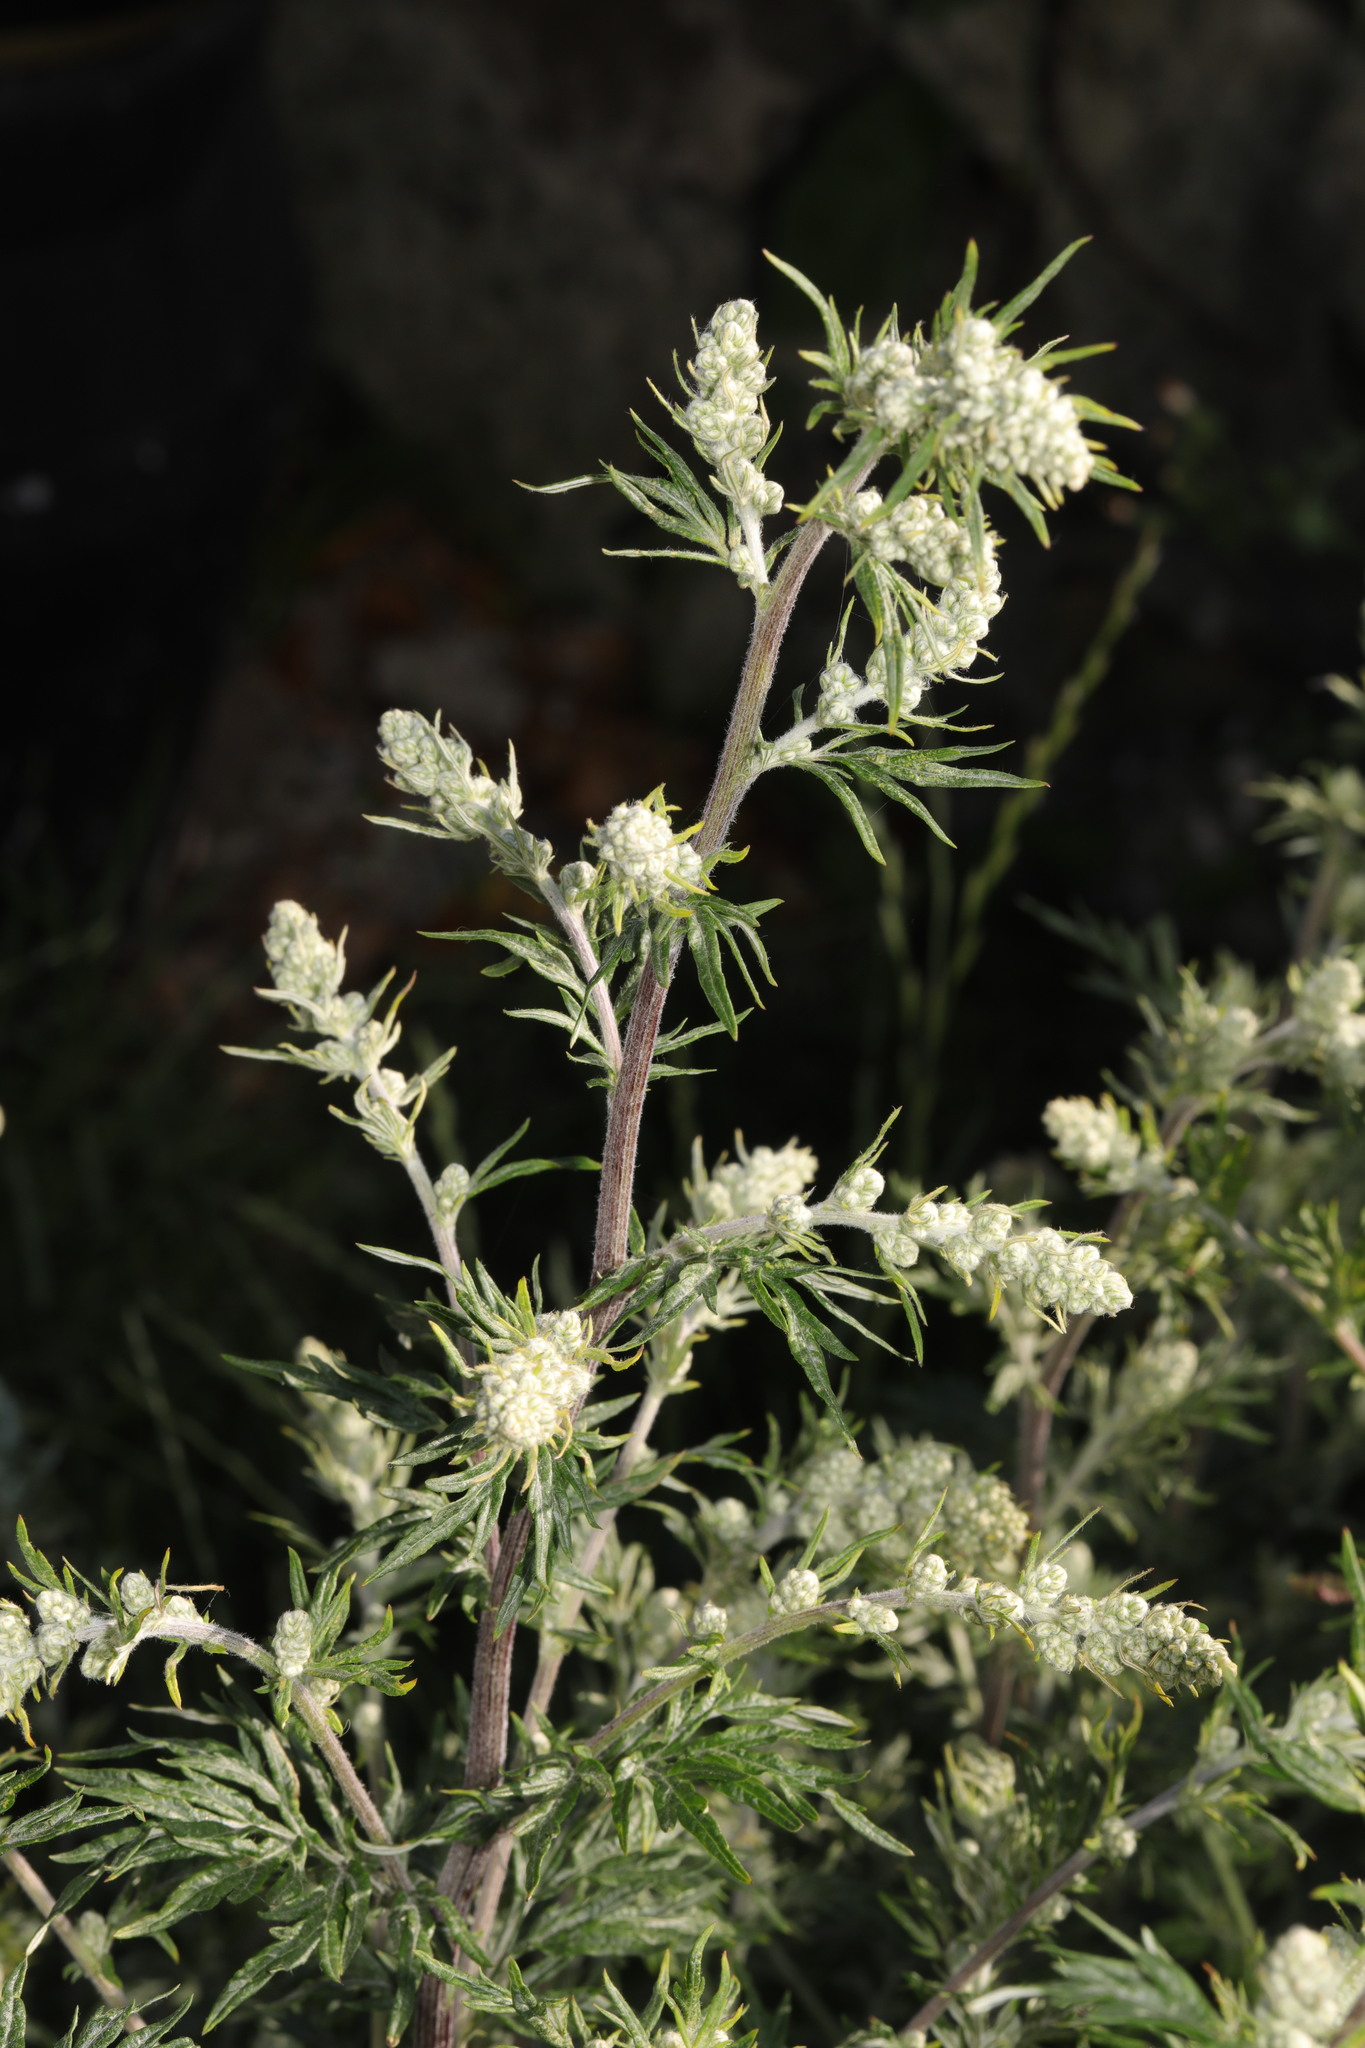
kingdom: Plantae
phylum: Tracheophyta
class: Magnoliopsida
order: Asterales
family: Asteraceae
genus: Artemisia
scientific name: Artemisia vulgaris
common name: Mugwort
